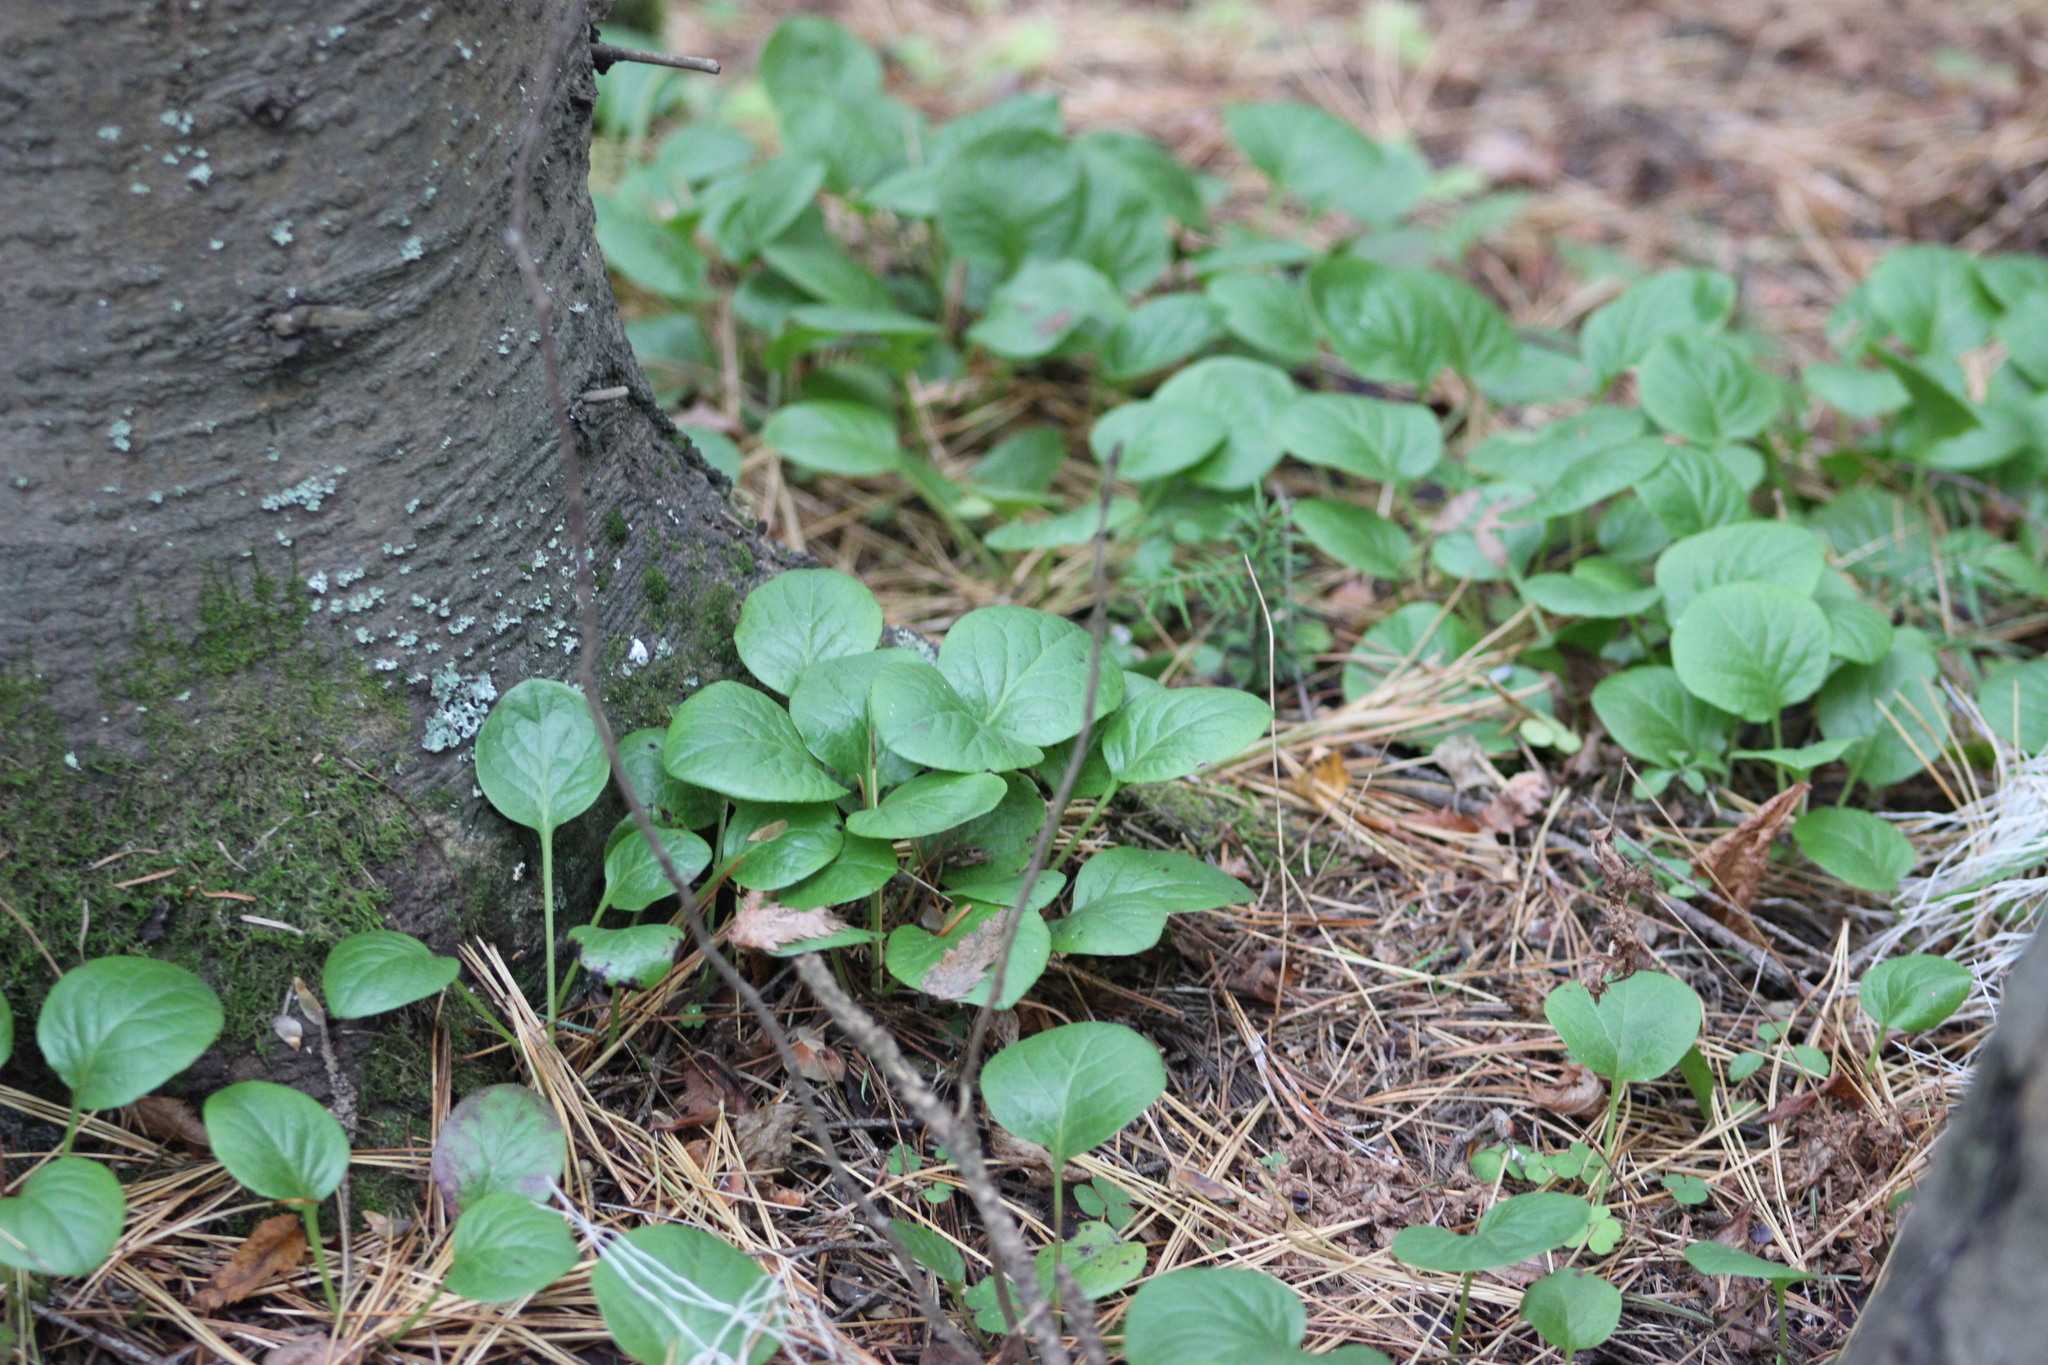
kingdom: Plantae
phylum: Tracheophyta
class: Magnoliopsida
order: Ericales
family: Ericaceae
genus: Pyrola
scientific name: Pyrola rotundifolia
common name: Round-leaved wintergreen
